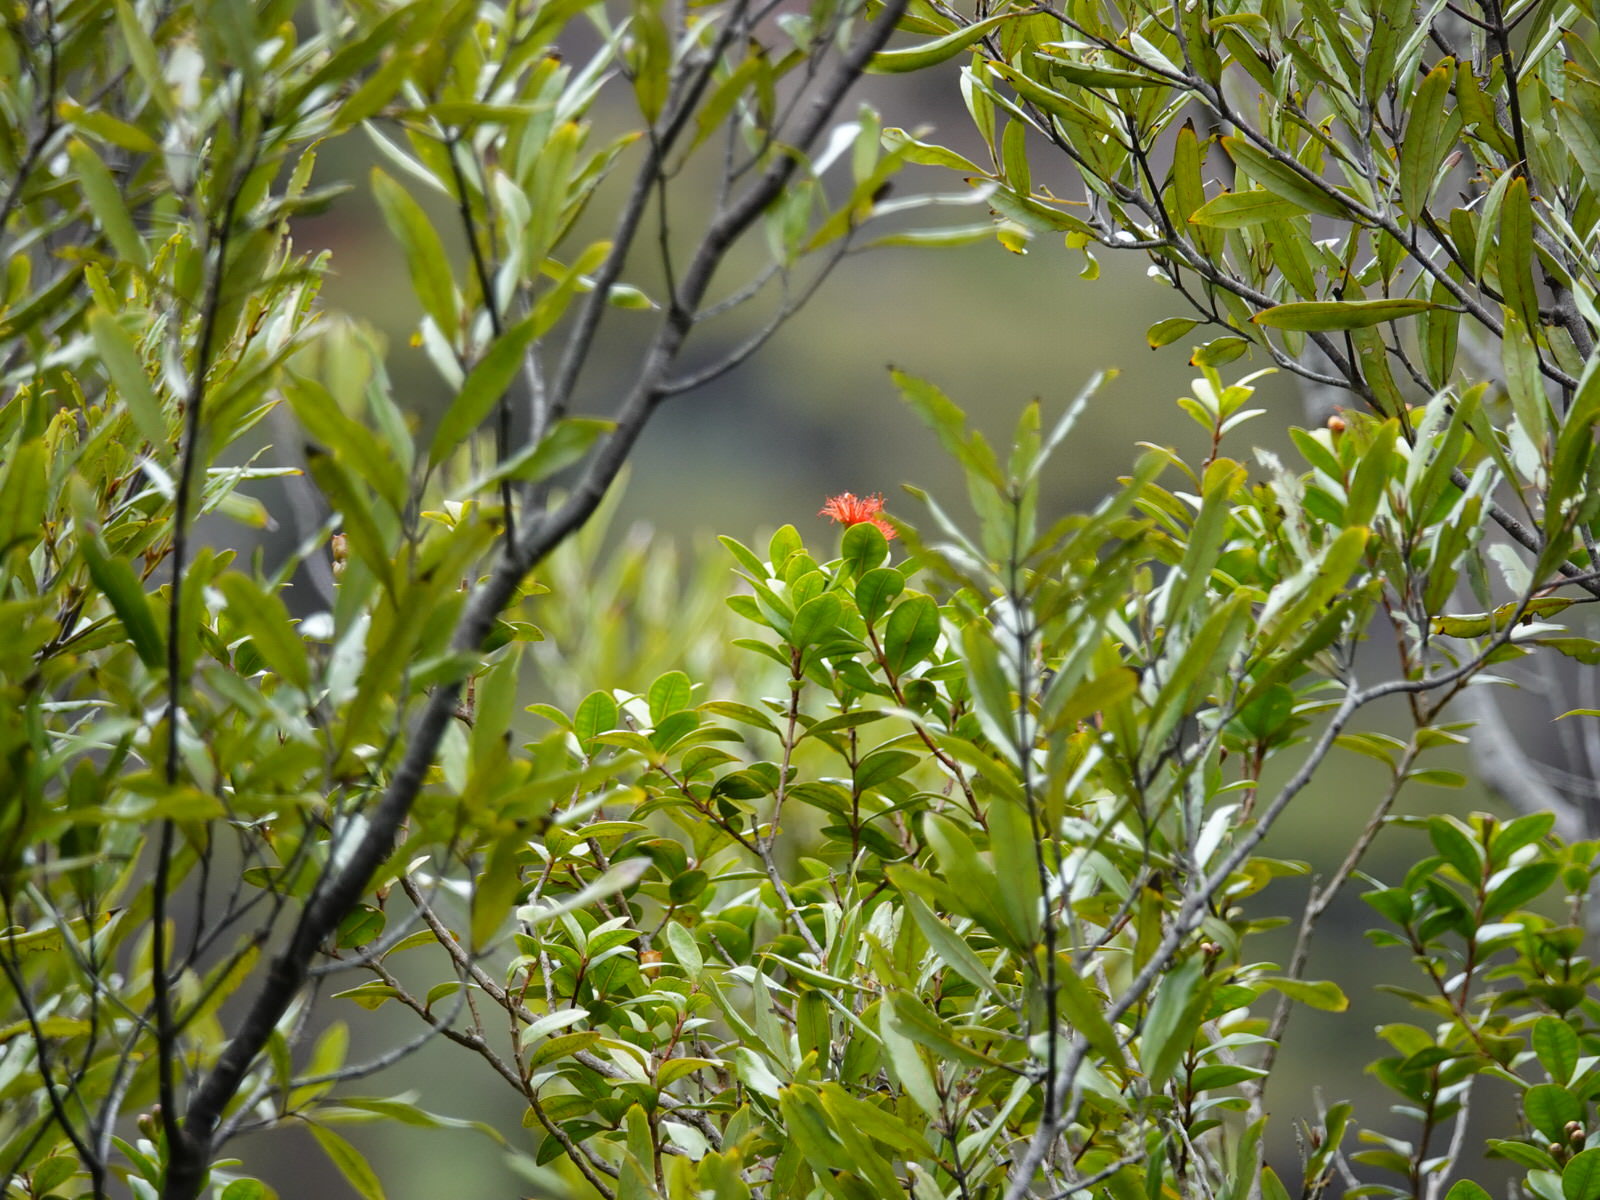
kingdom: Plantae
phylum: Tracheophyta
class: Magnoliopsida
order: Myrtales
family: Myrtaceae
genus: Metrosideros
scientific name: Metrosideros fulgens
